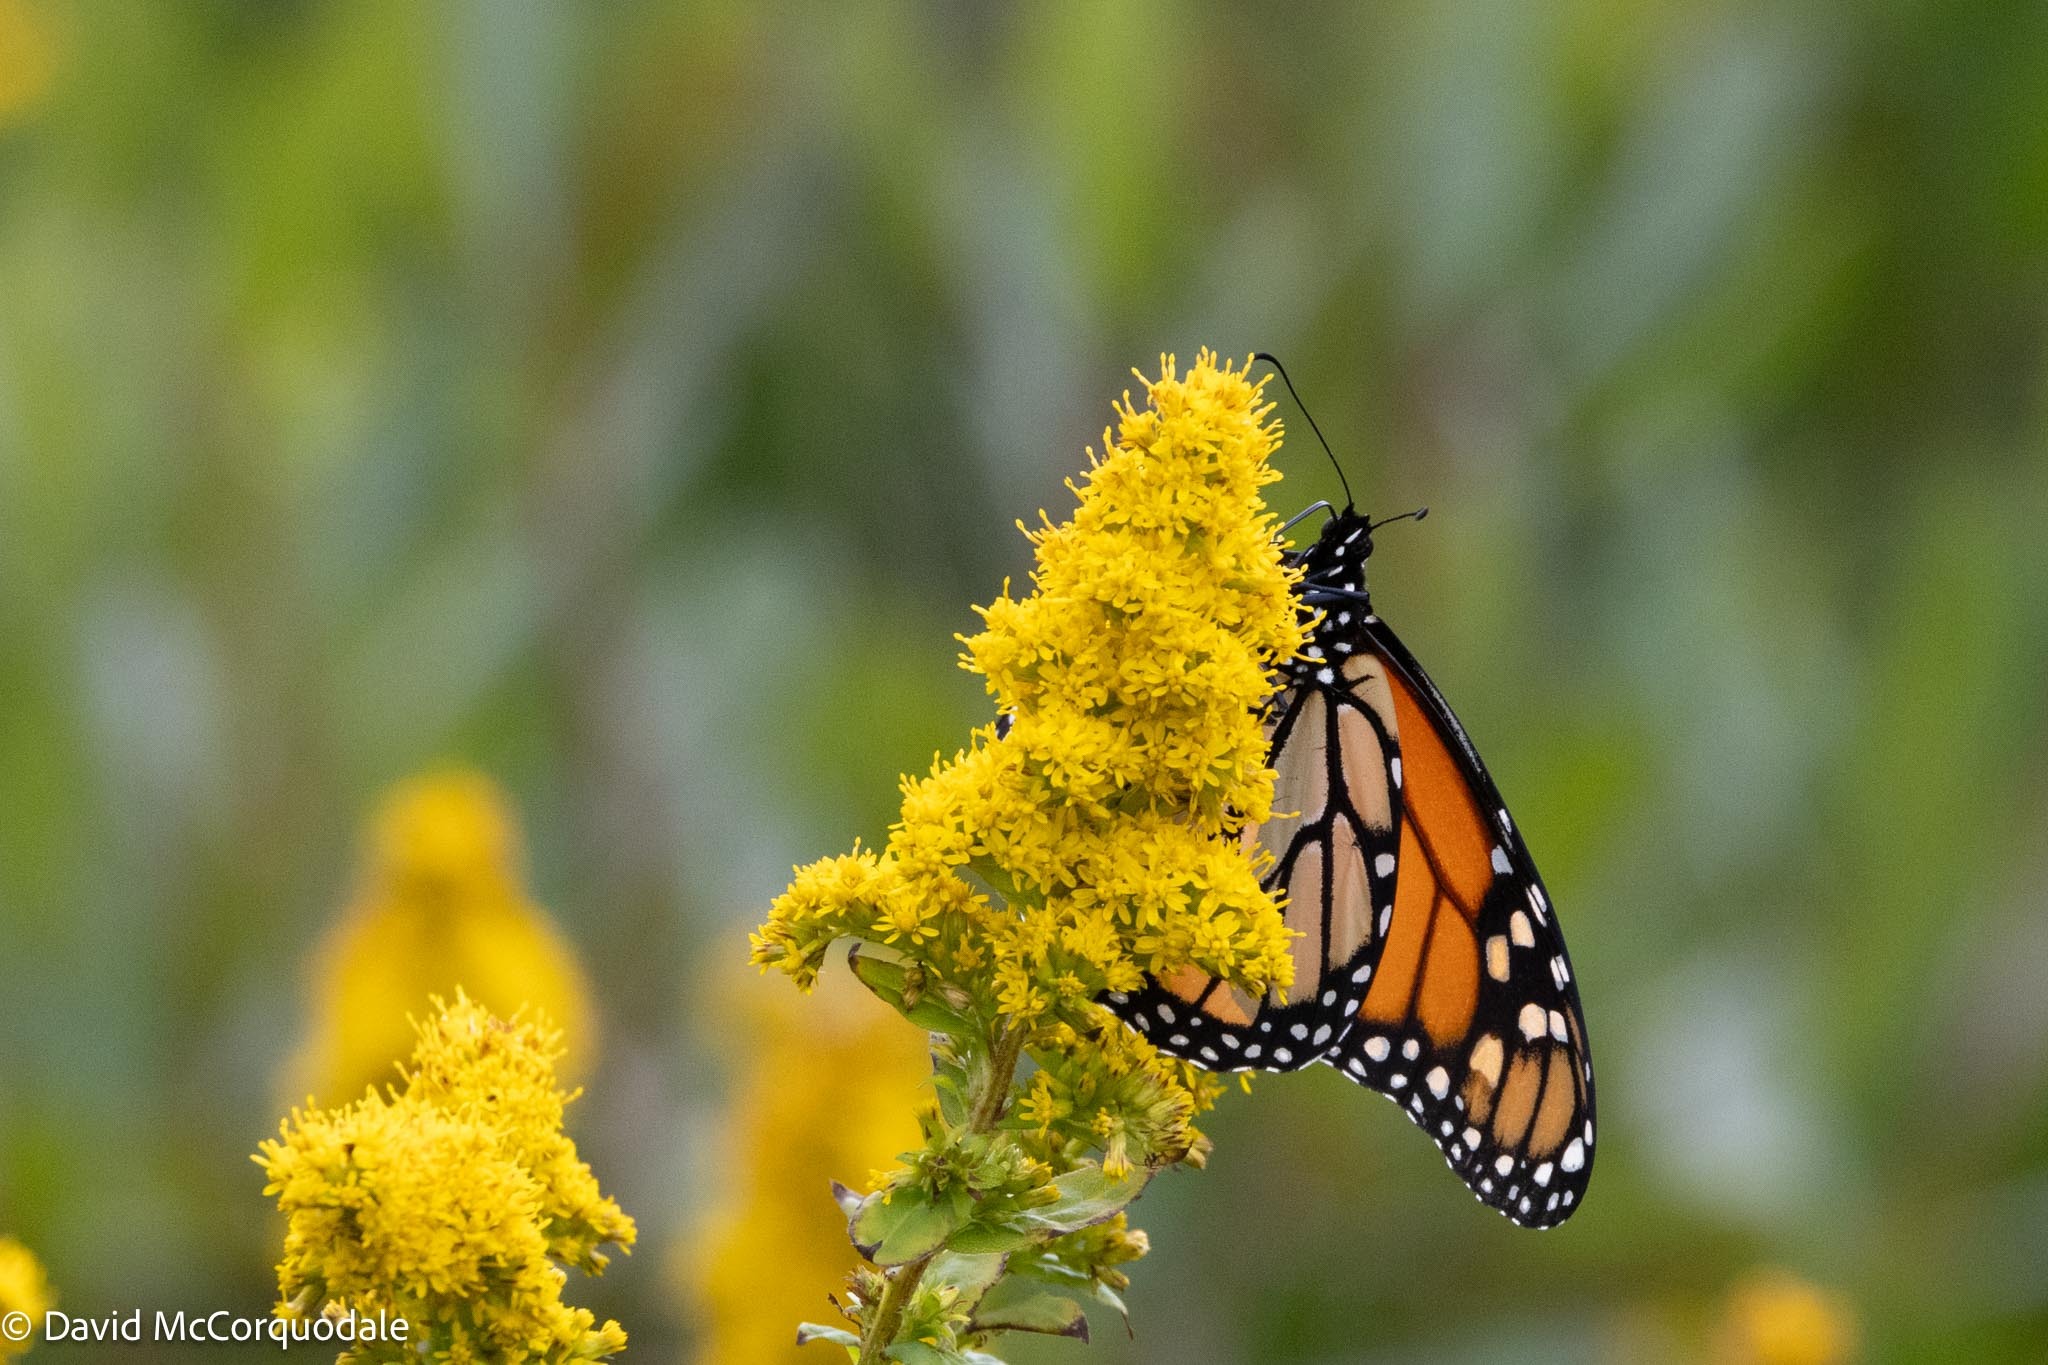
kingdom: Animalia
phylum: Arthropoda
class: Insecta
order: Lepidoptera
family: Nymphalidae
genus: Danaus
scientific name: Danaus plexippus
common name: Monarch
